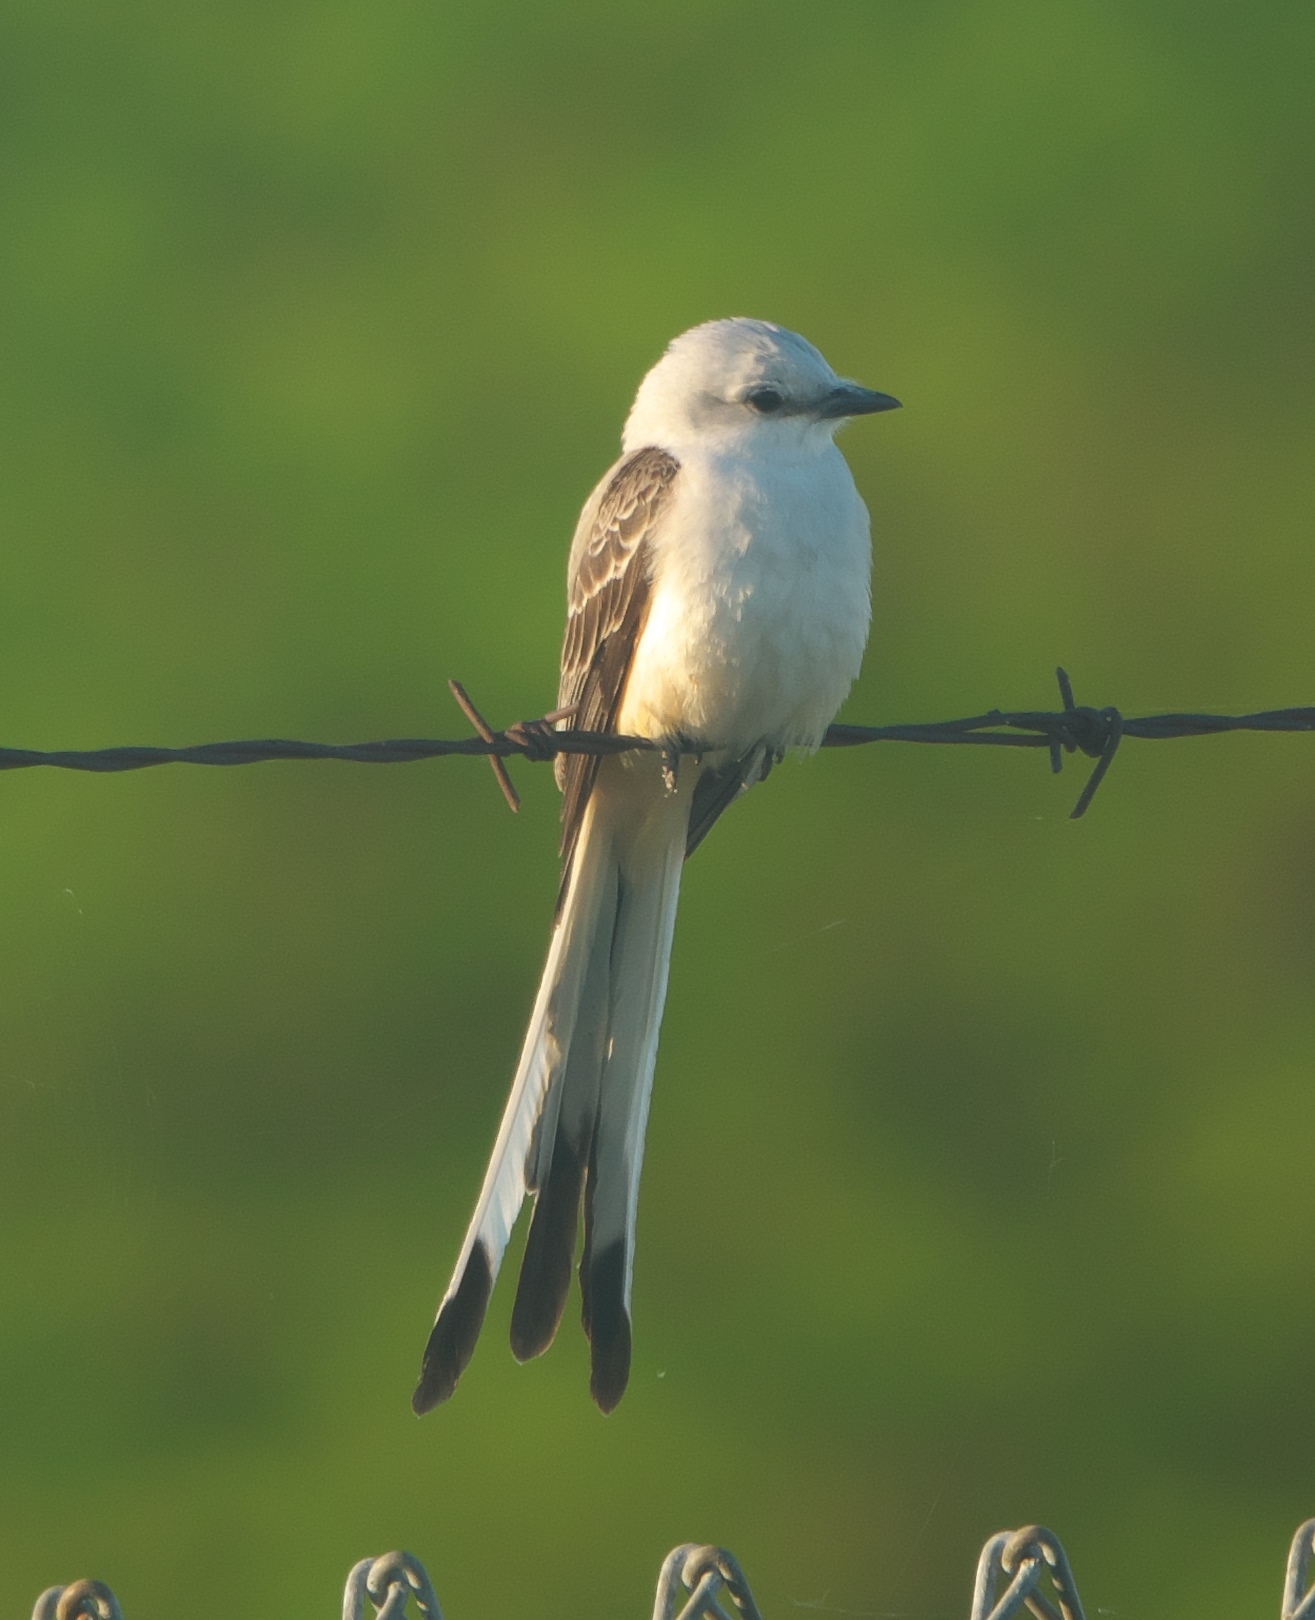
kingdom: Animalia
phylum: Chordata
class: Aves
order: Passeriformes
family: Tyrannidae
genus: Tyrannus
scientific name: Tyrannus forficatus
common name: Scissor-tailed flycatcher
